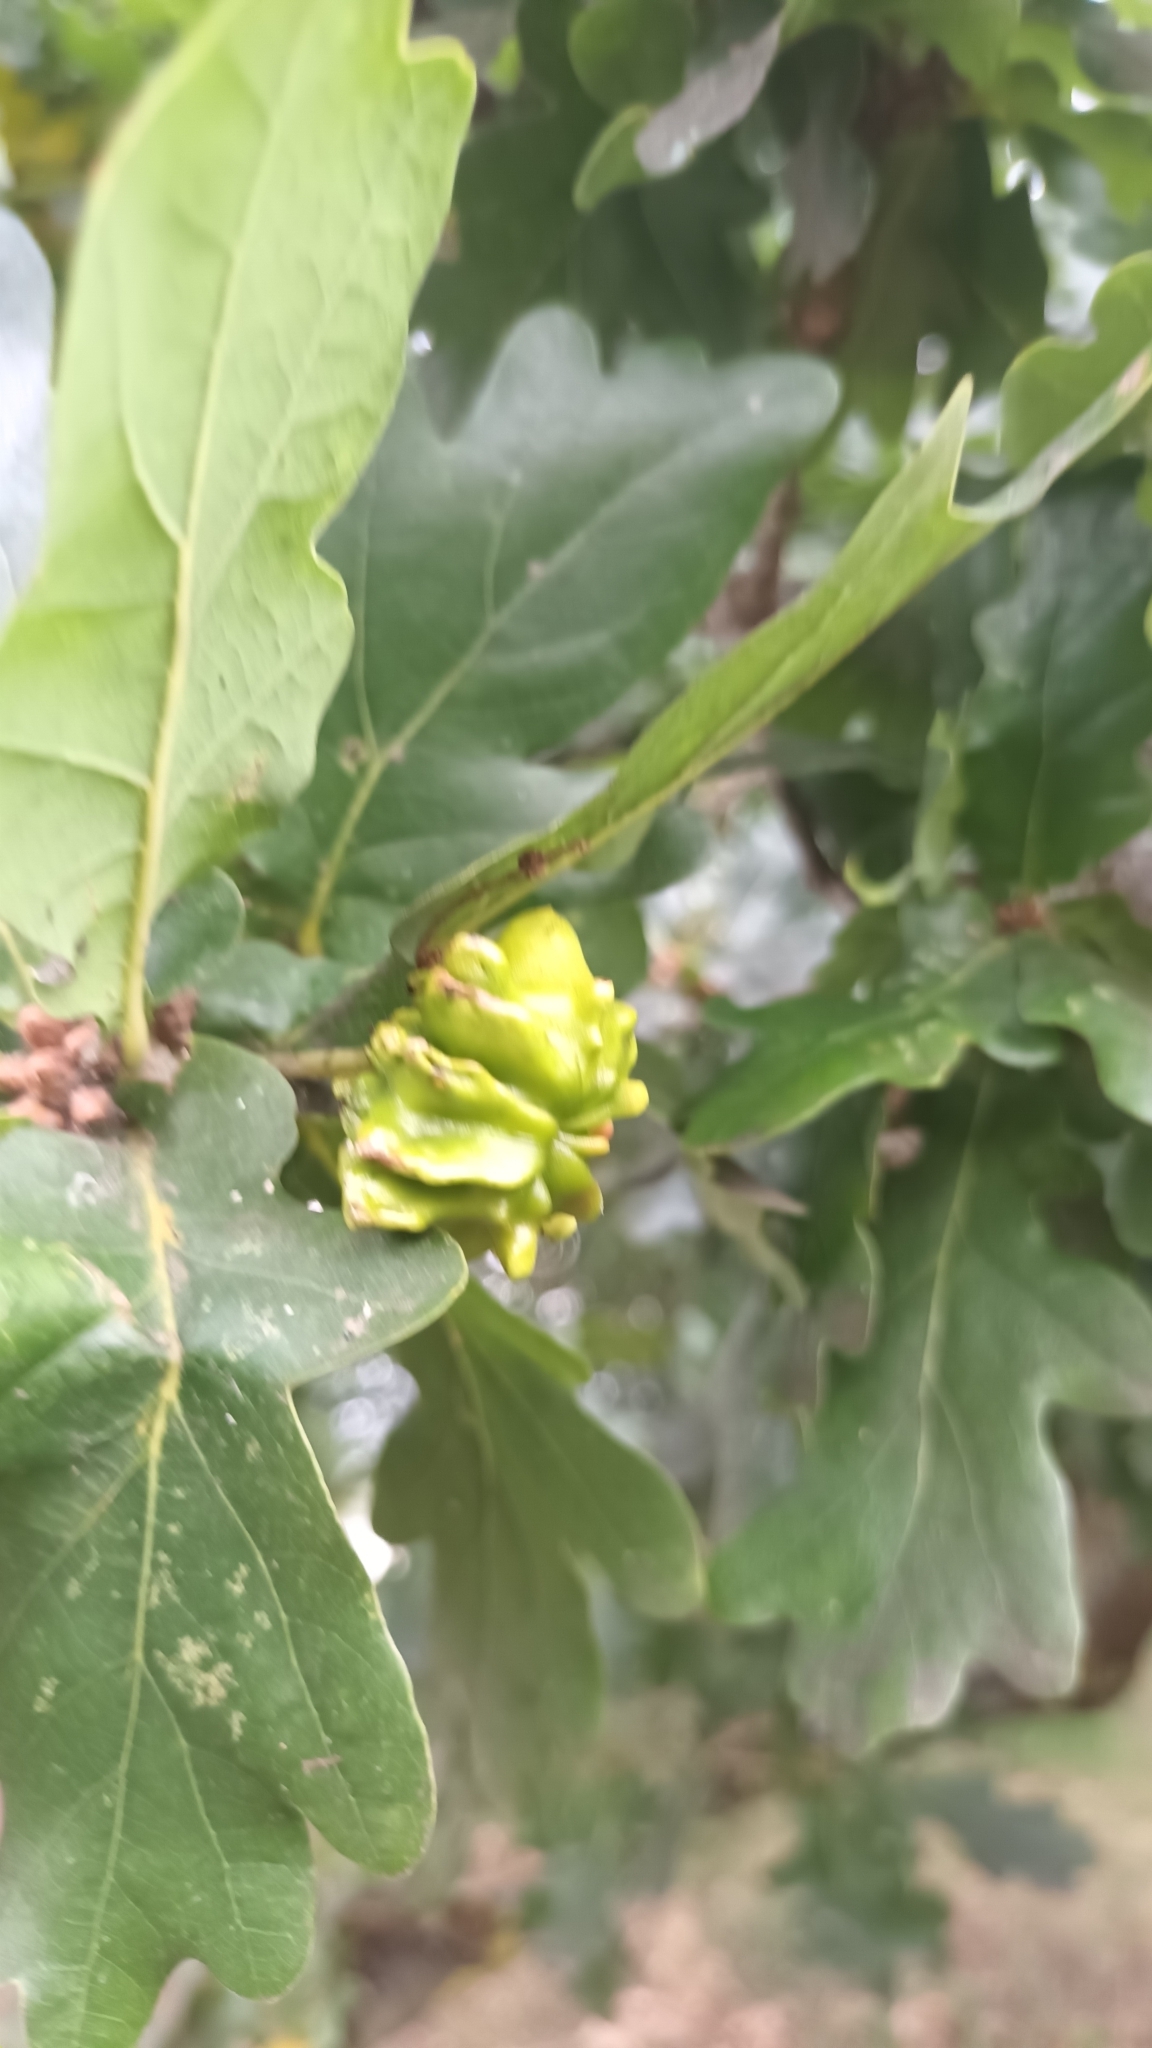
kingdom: Animalia
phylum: Arthropoda
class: Insecta
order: Hymenoptera
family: Cynipidae
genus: Andricus
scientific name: Andricus quercuscalicis
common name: Knopper gall
